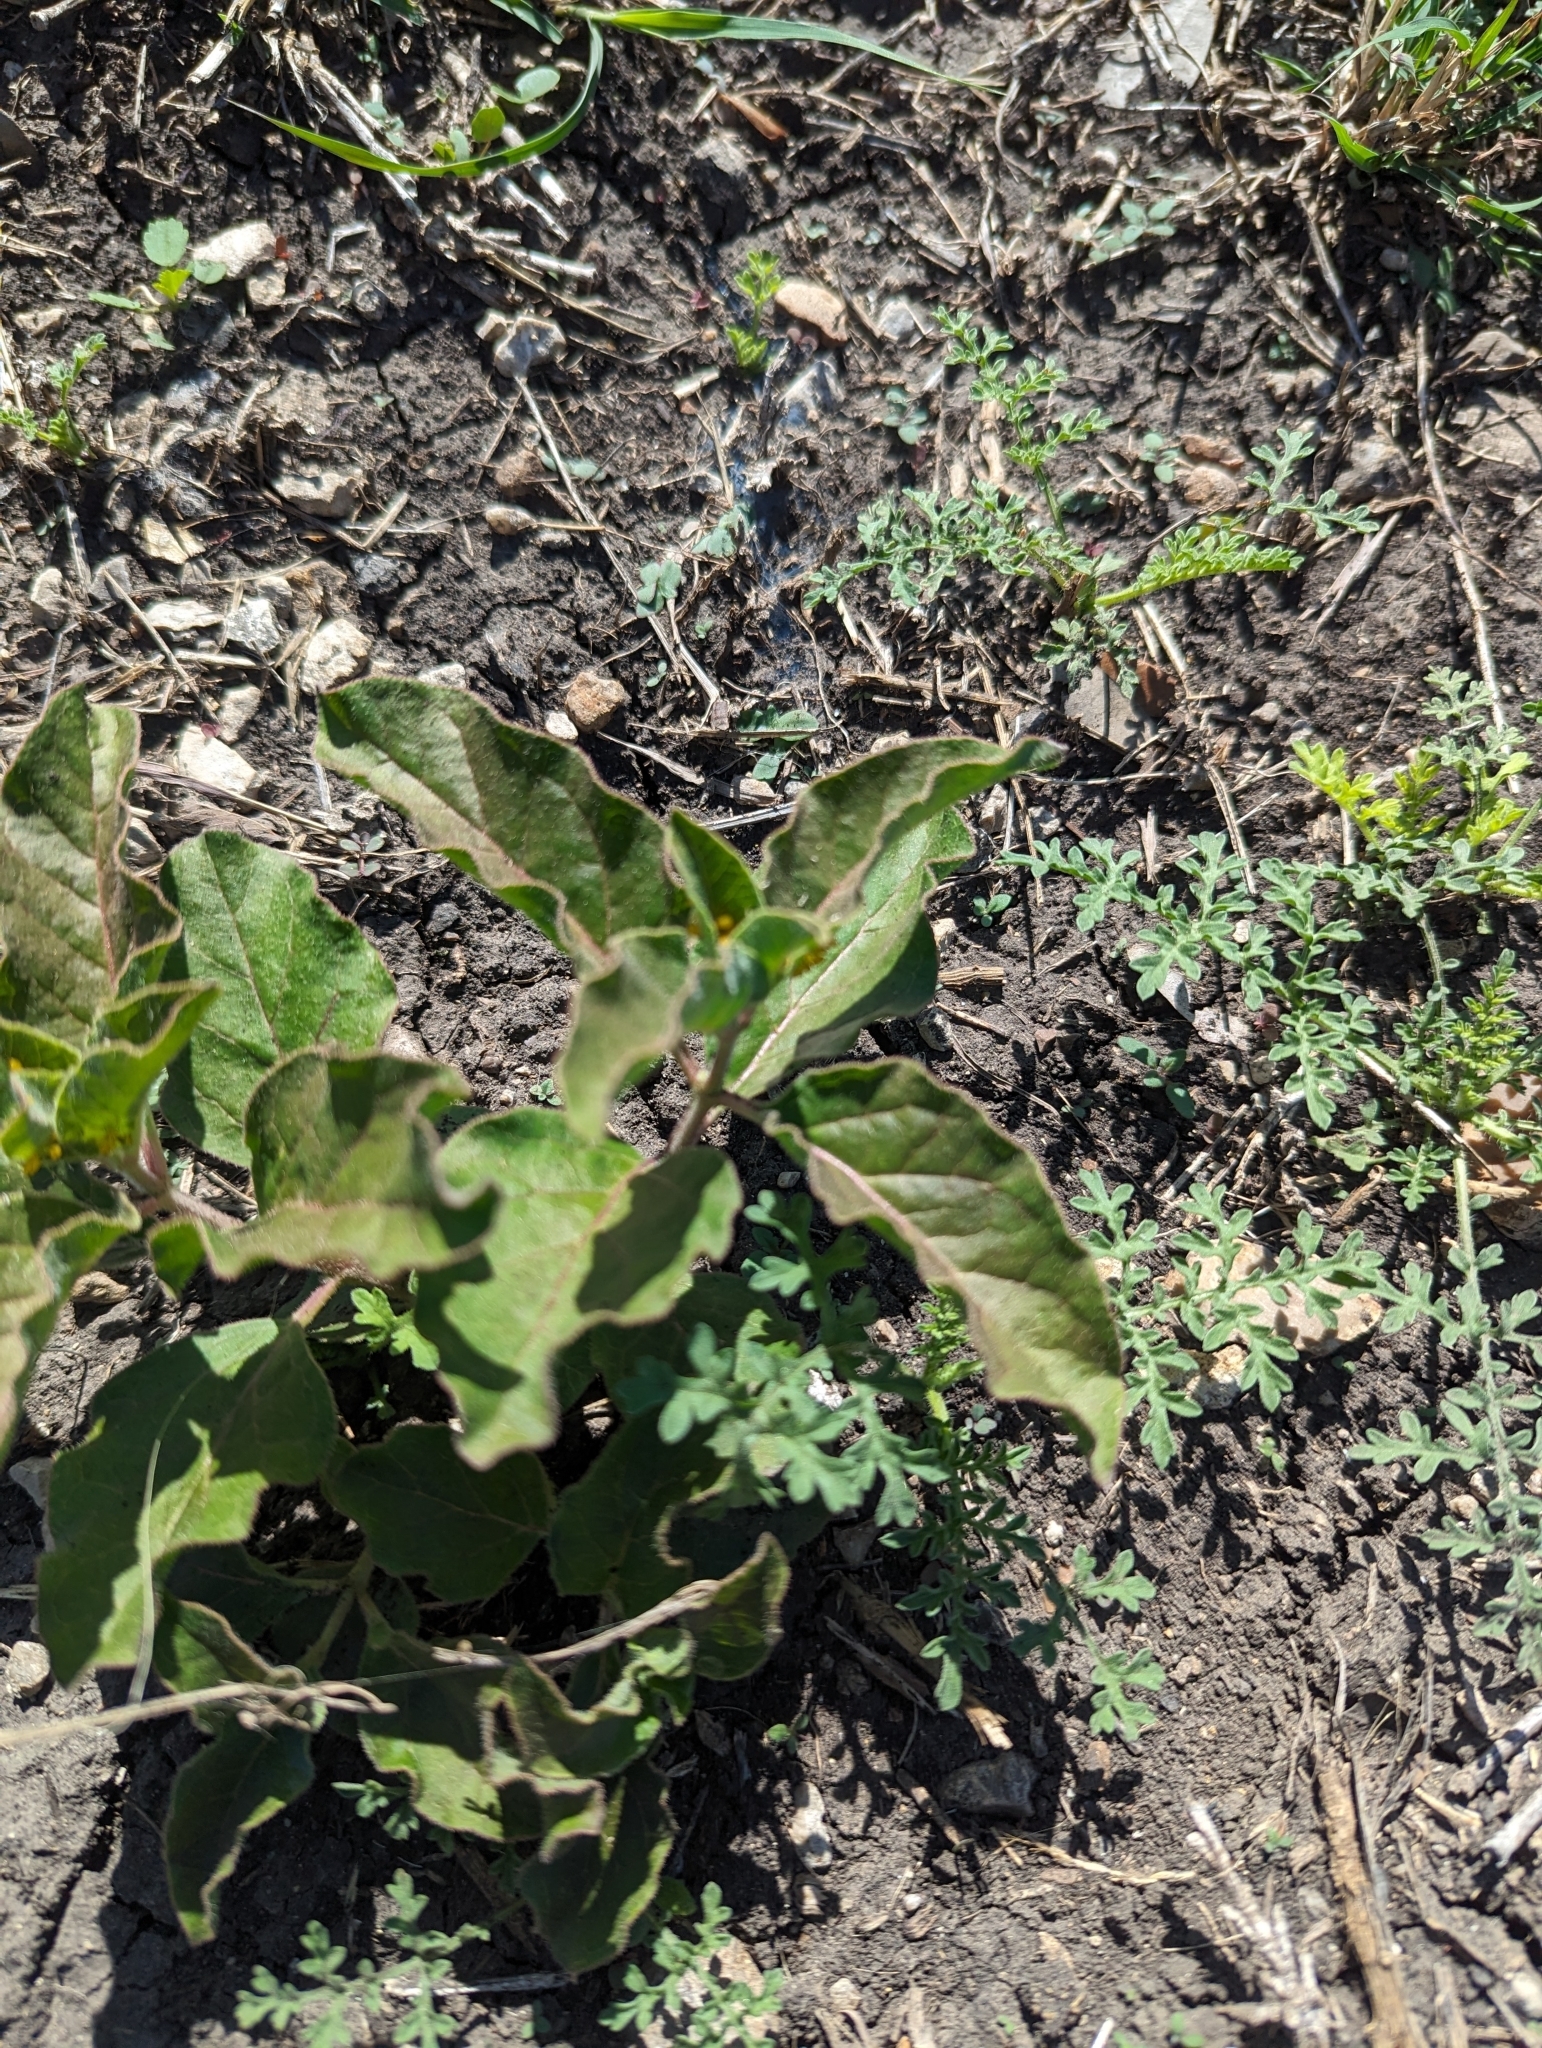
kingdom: Plantae
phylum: Tracheophyta
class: Magnoliopsida
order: Gentianales
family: Apocynaceae
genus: Asclepias
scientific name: Asclepias oenotheroides
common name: Zizotes milkweed
